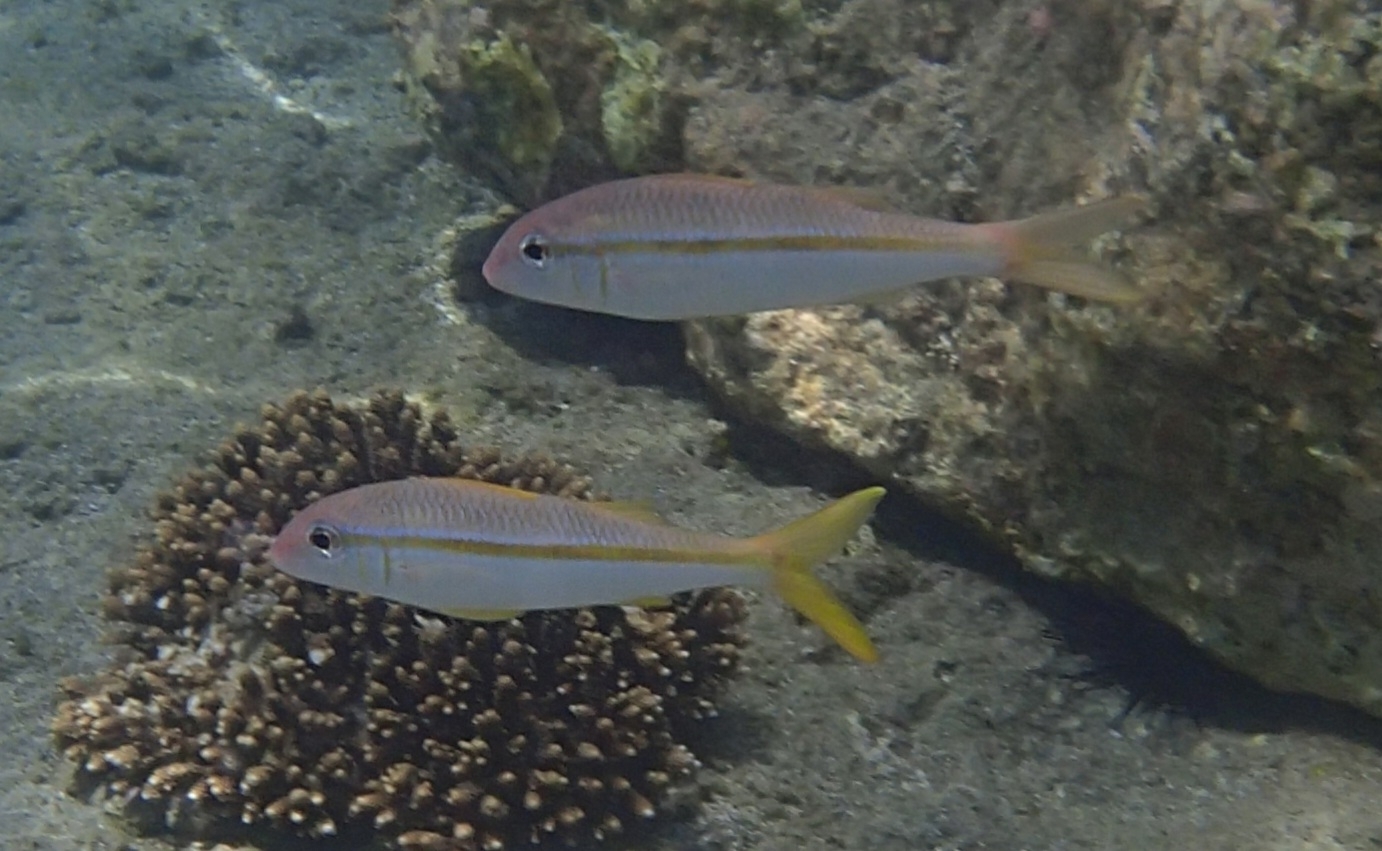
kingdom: Animalia
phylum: Chordata
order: Perciformes
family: Mullidae
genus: Mulloidichthys
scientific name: Mulloidichthys vanicolensis
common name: Yellowfin goatfish
